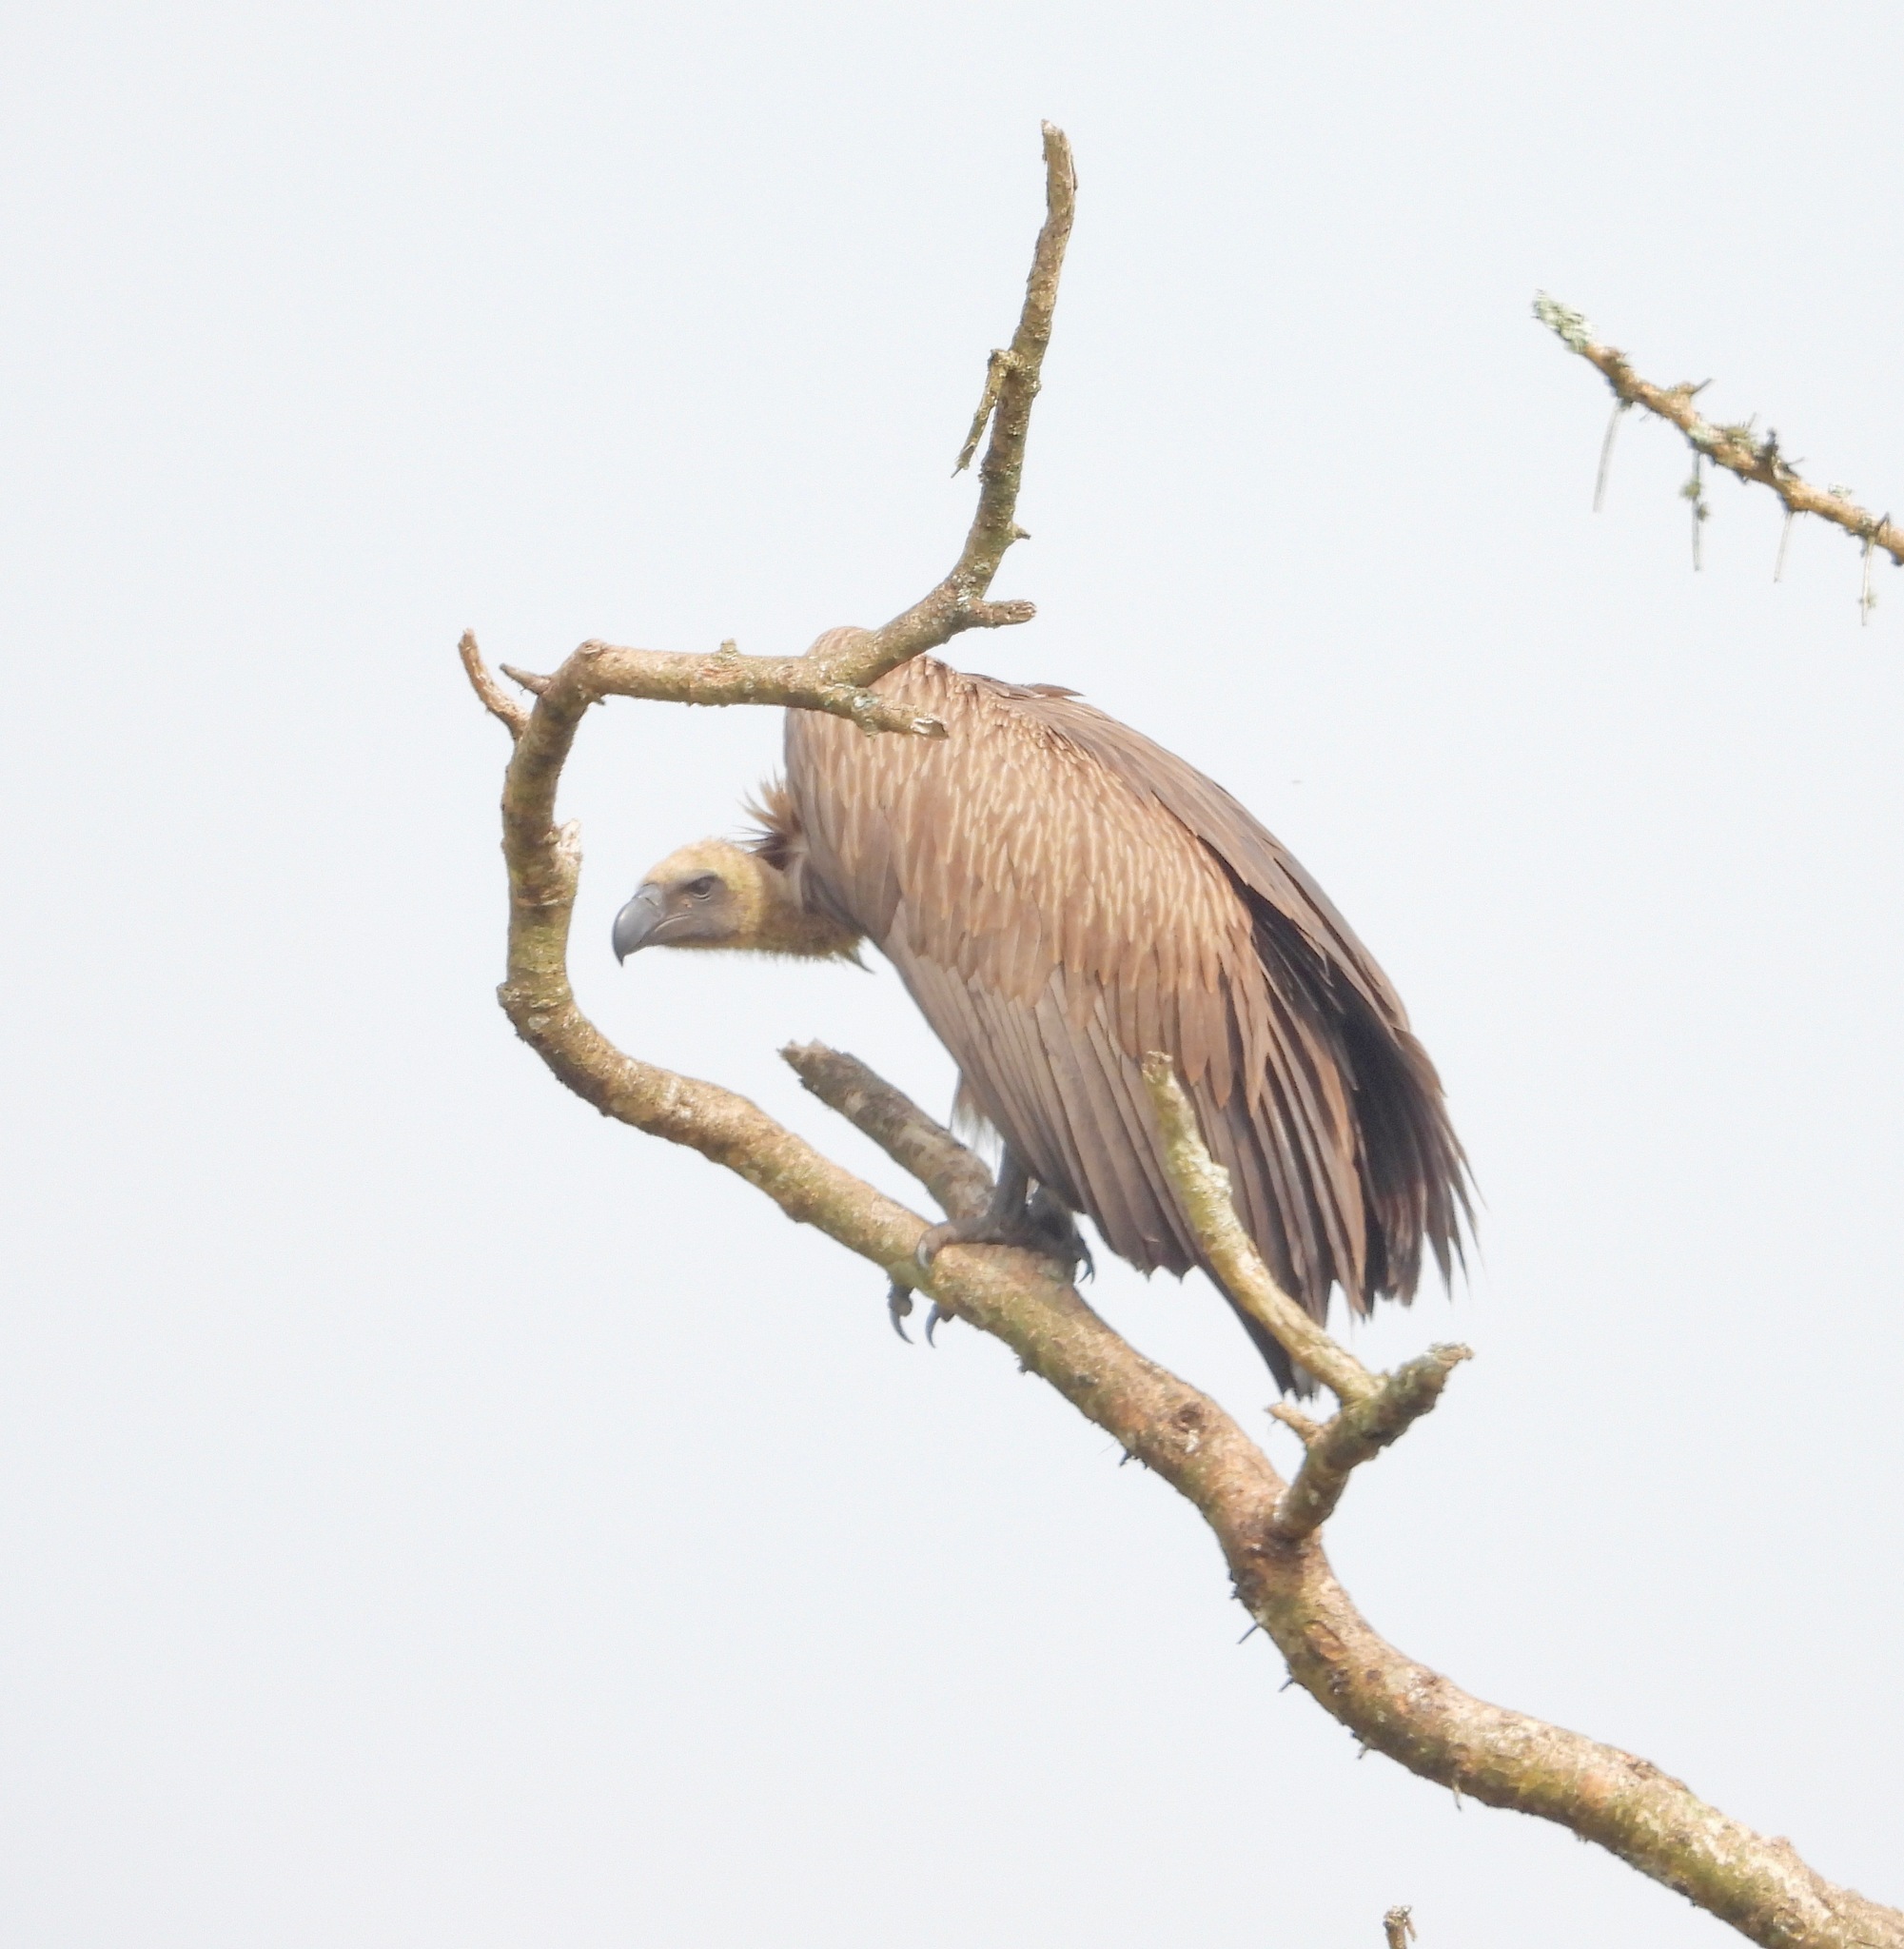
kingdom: Animalia
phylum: Chordata
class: Aves
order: Accipitriformes
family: Accipitridae
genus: Gyps
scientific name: Gyps africanus
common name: White-backed vulture
